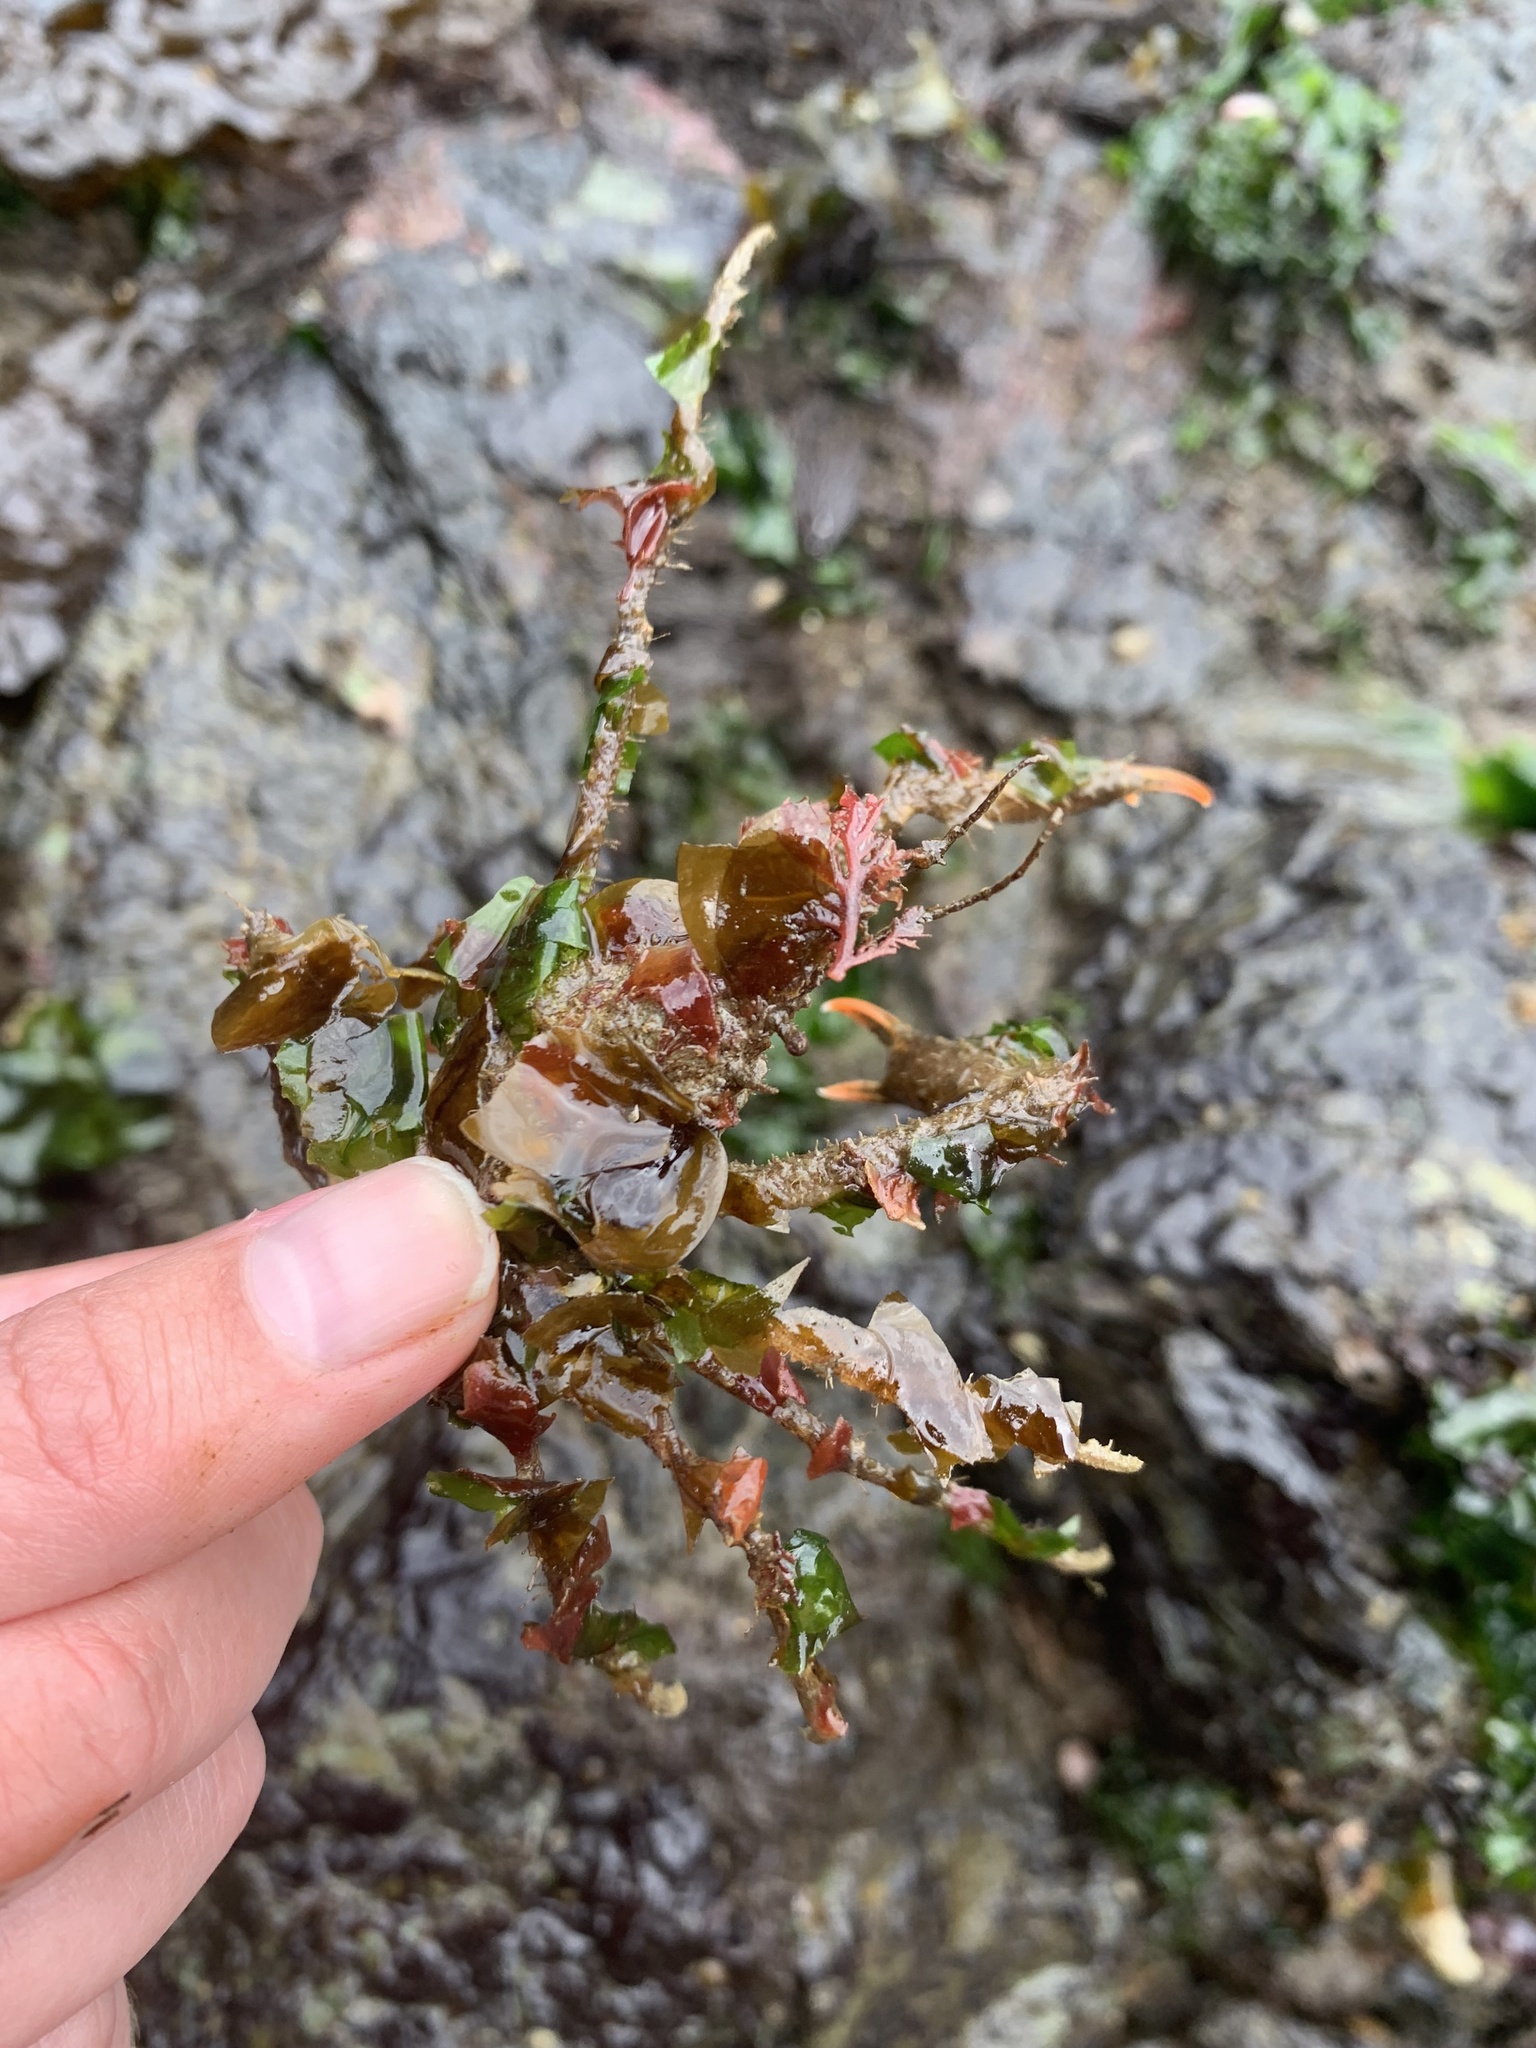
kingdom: Animalia
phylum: Arthropoda
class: Malacostraca
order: Decapoda
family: Oregoniidae
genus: Oregonia
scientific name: Oregonia gracilis
